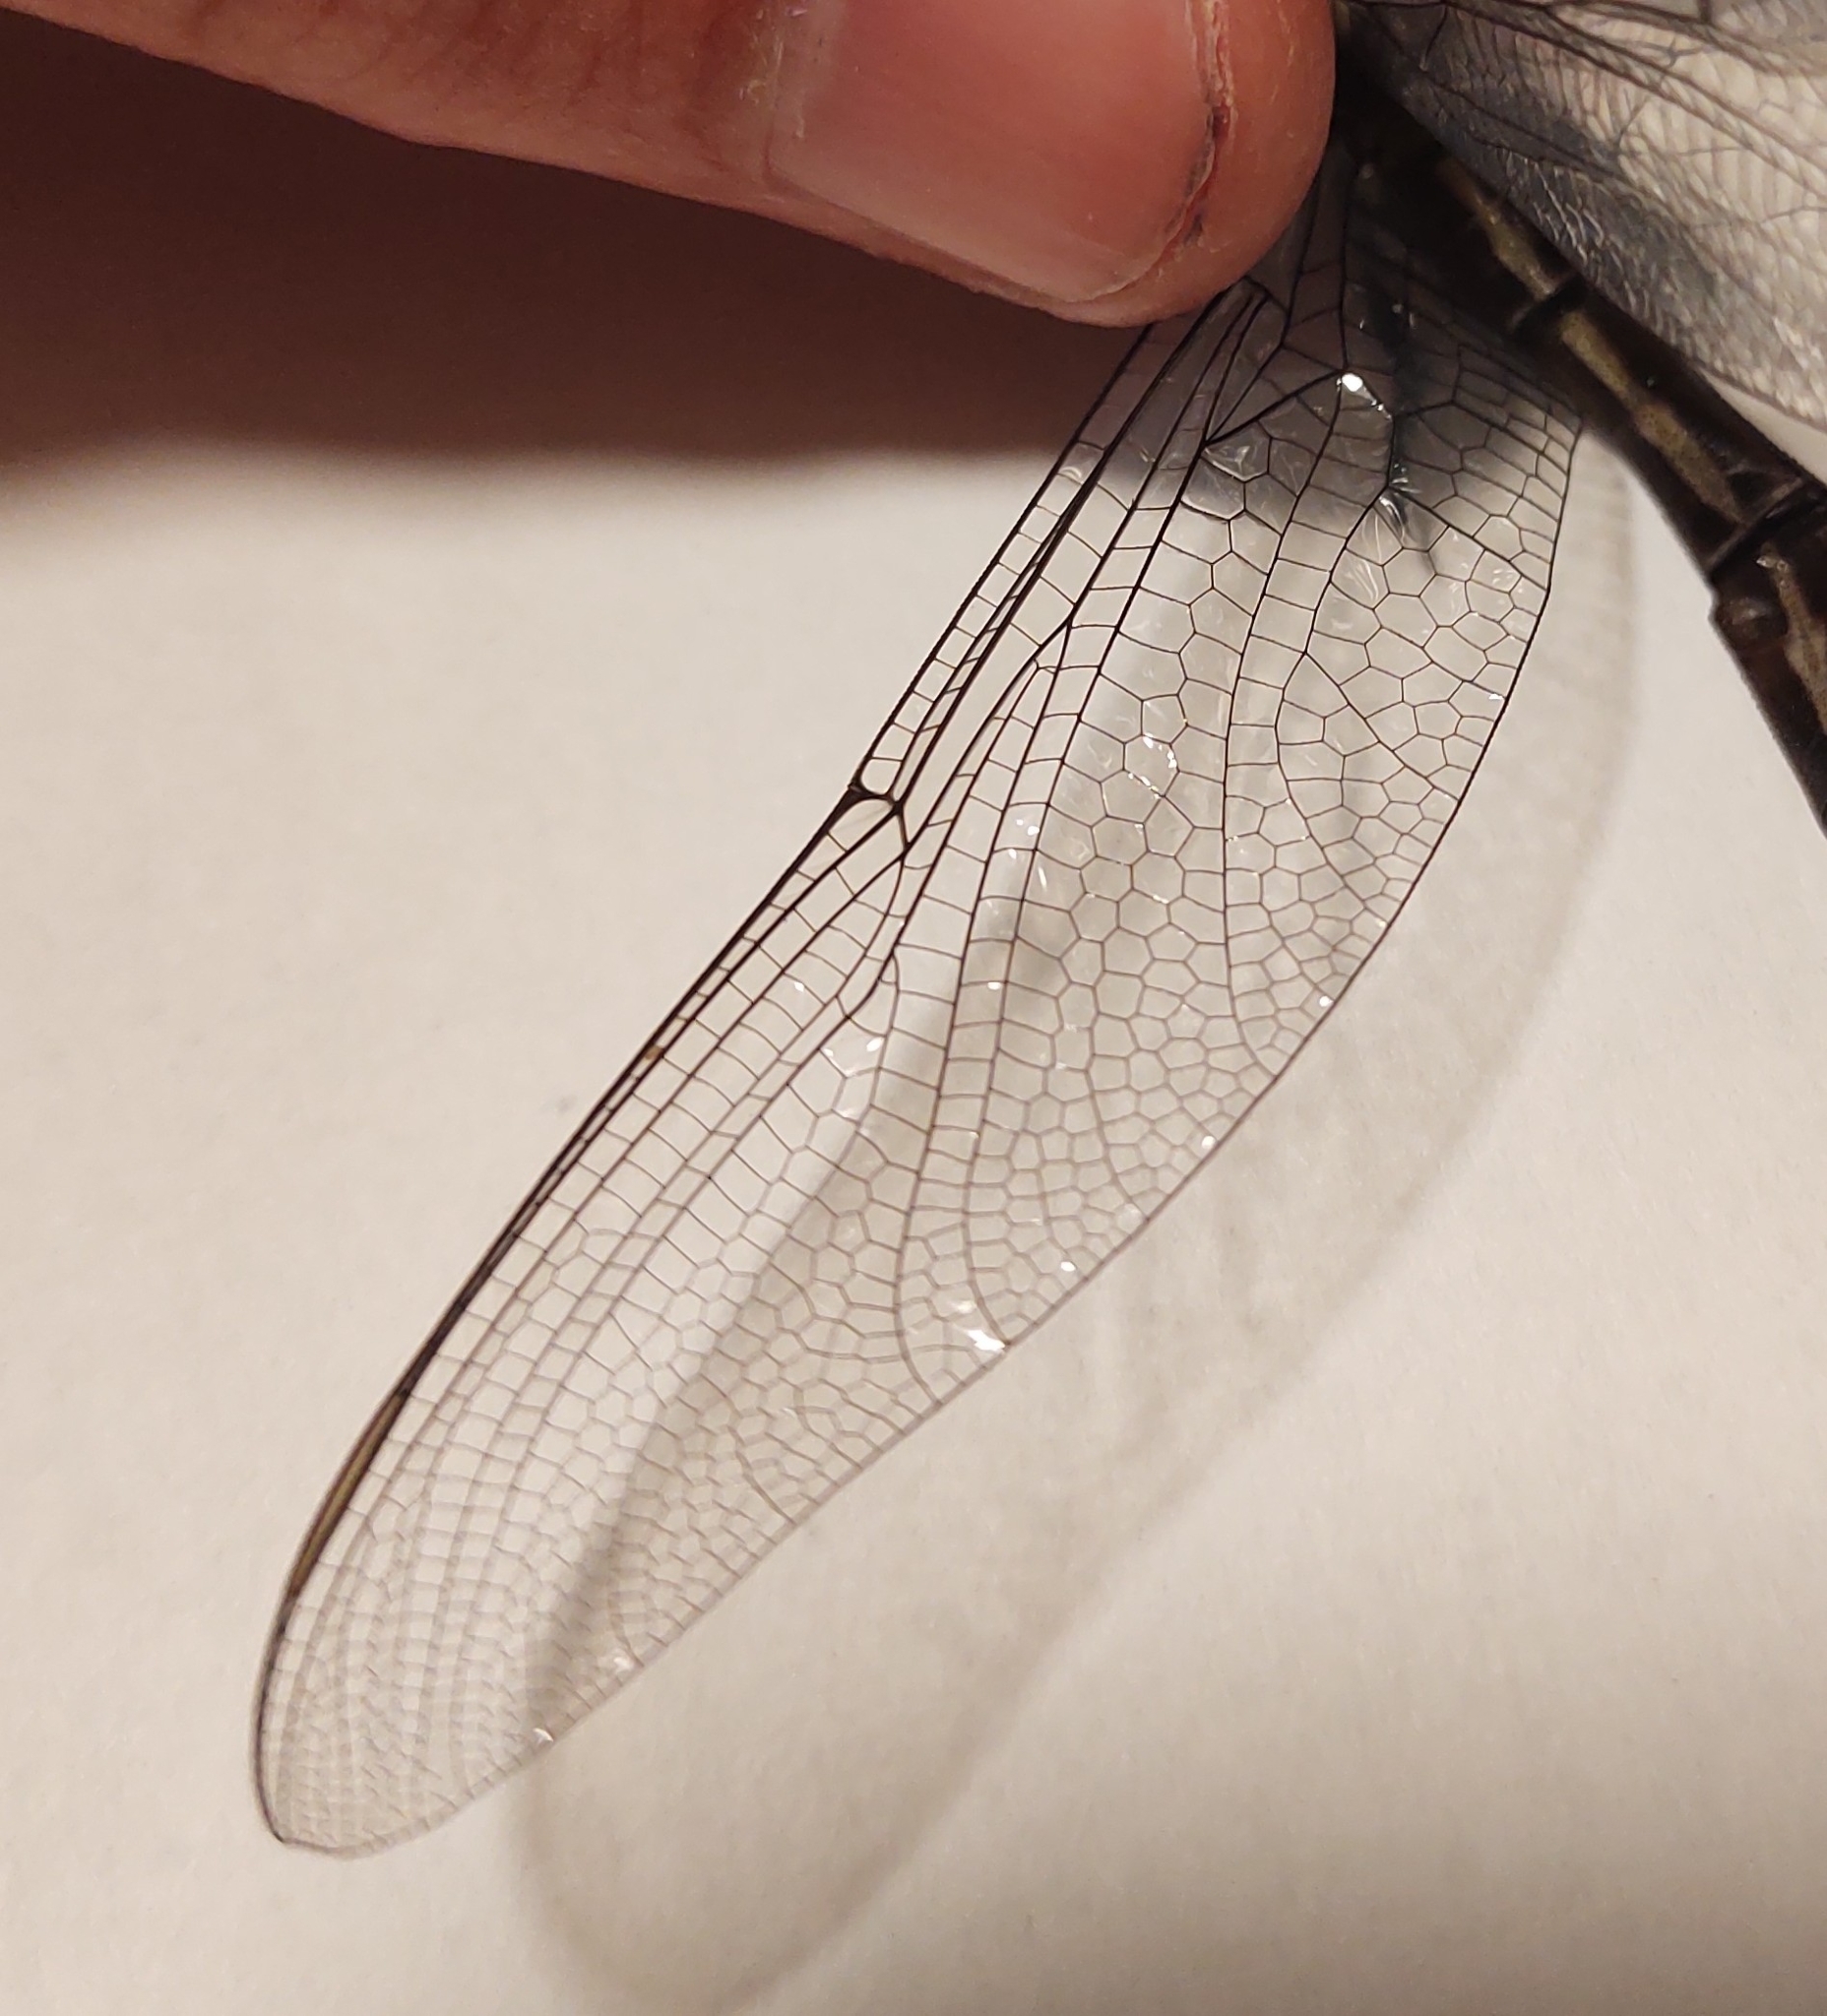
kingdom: Animalia
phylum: Arthropoda
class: Insecta
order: Odonata
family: Cordulegastridae
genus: Cordulegaster
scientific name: Cordulegaster obliqua
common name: Arrowhead spiketail
